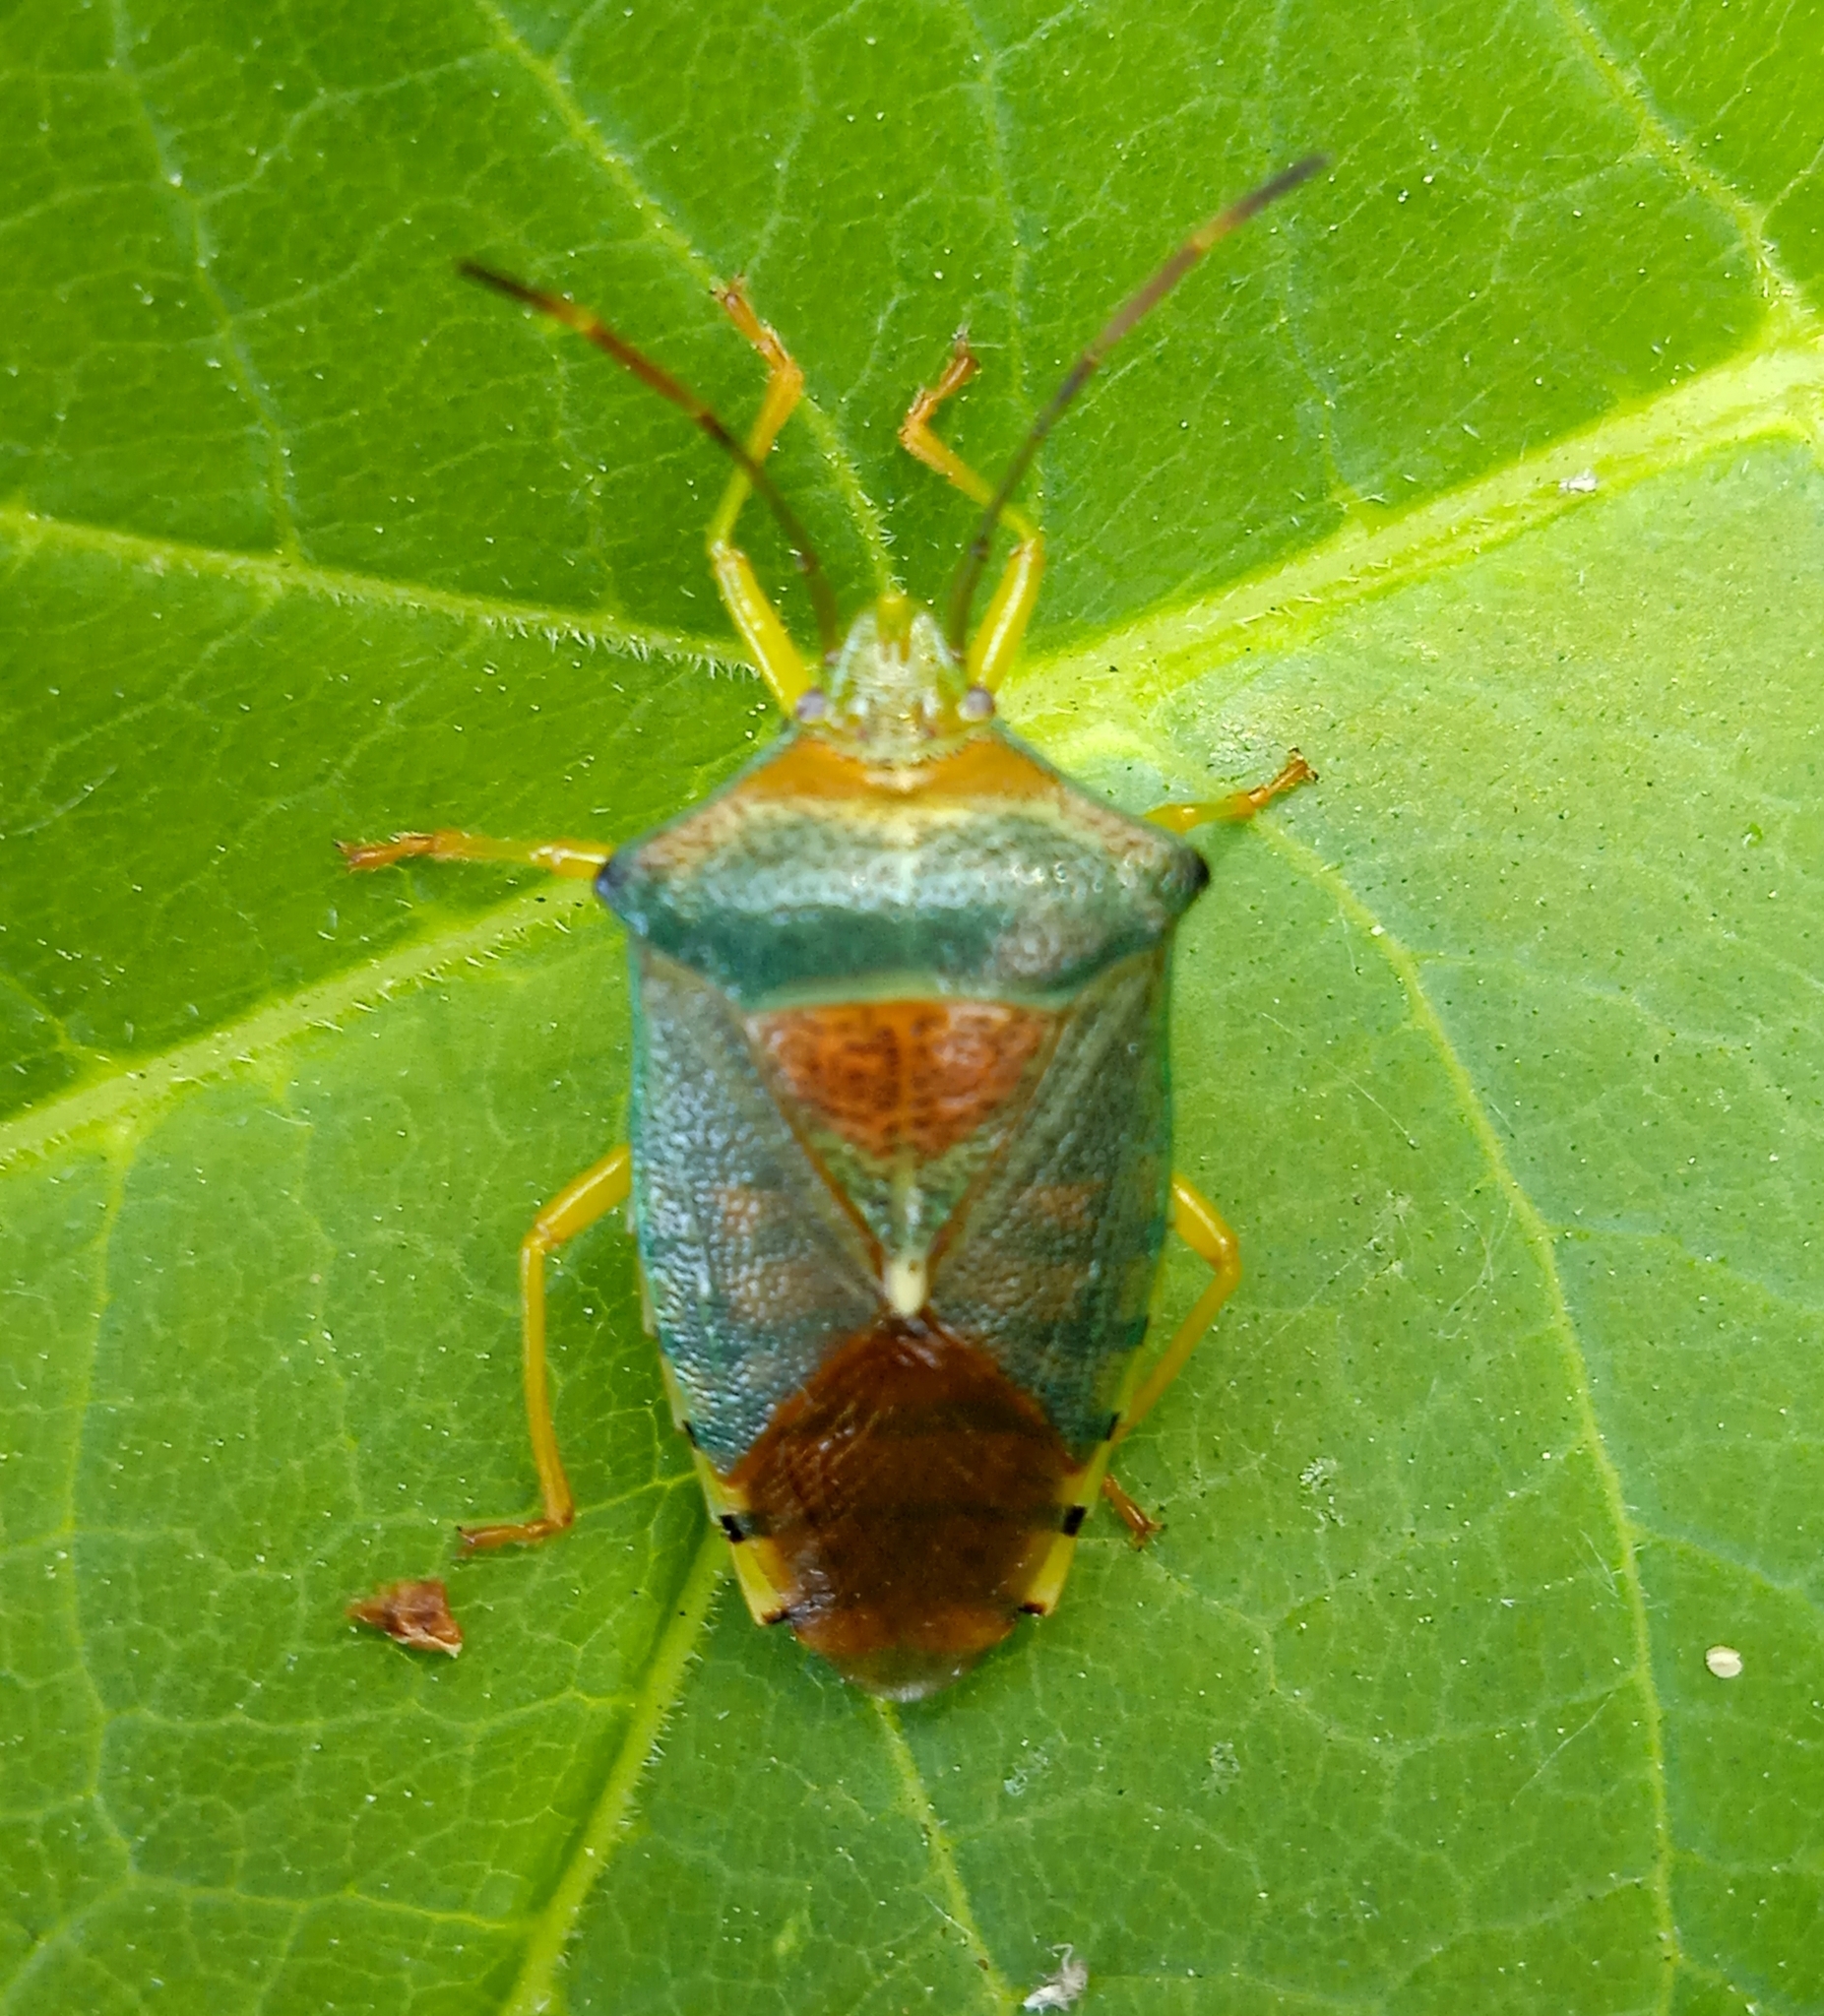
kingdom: Animalia
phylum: Arthropoda
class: Insecta
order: Hemiptera
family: Acanthosomatidae
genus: Acanthosoma
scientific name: Acanthosoma denticaudum
